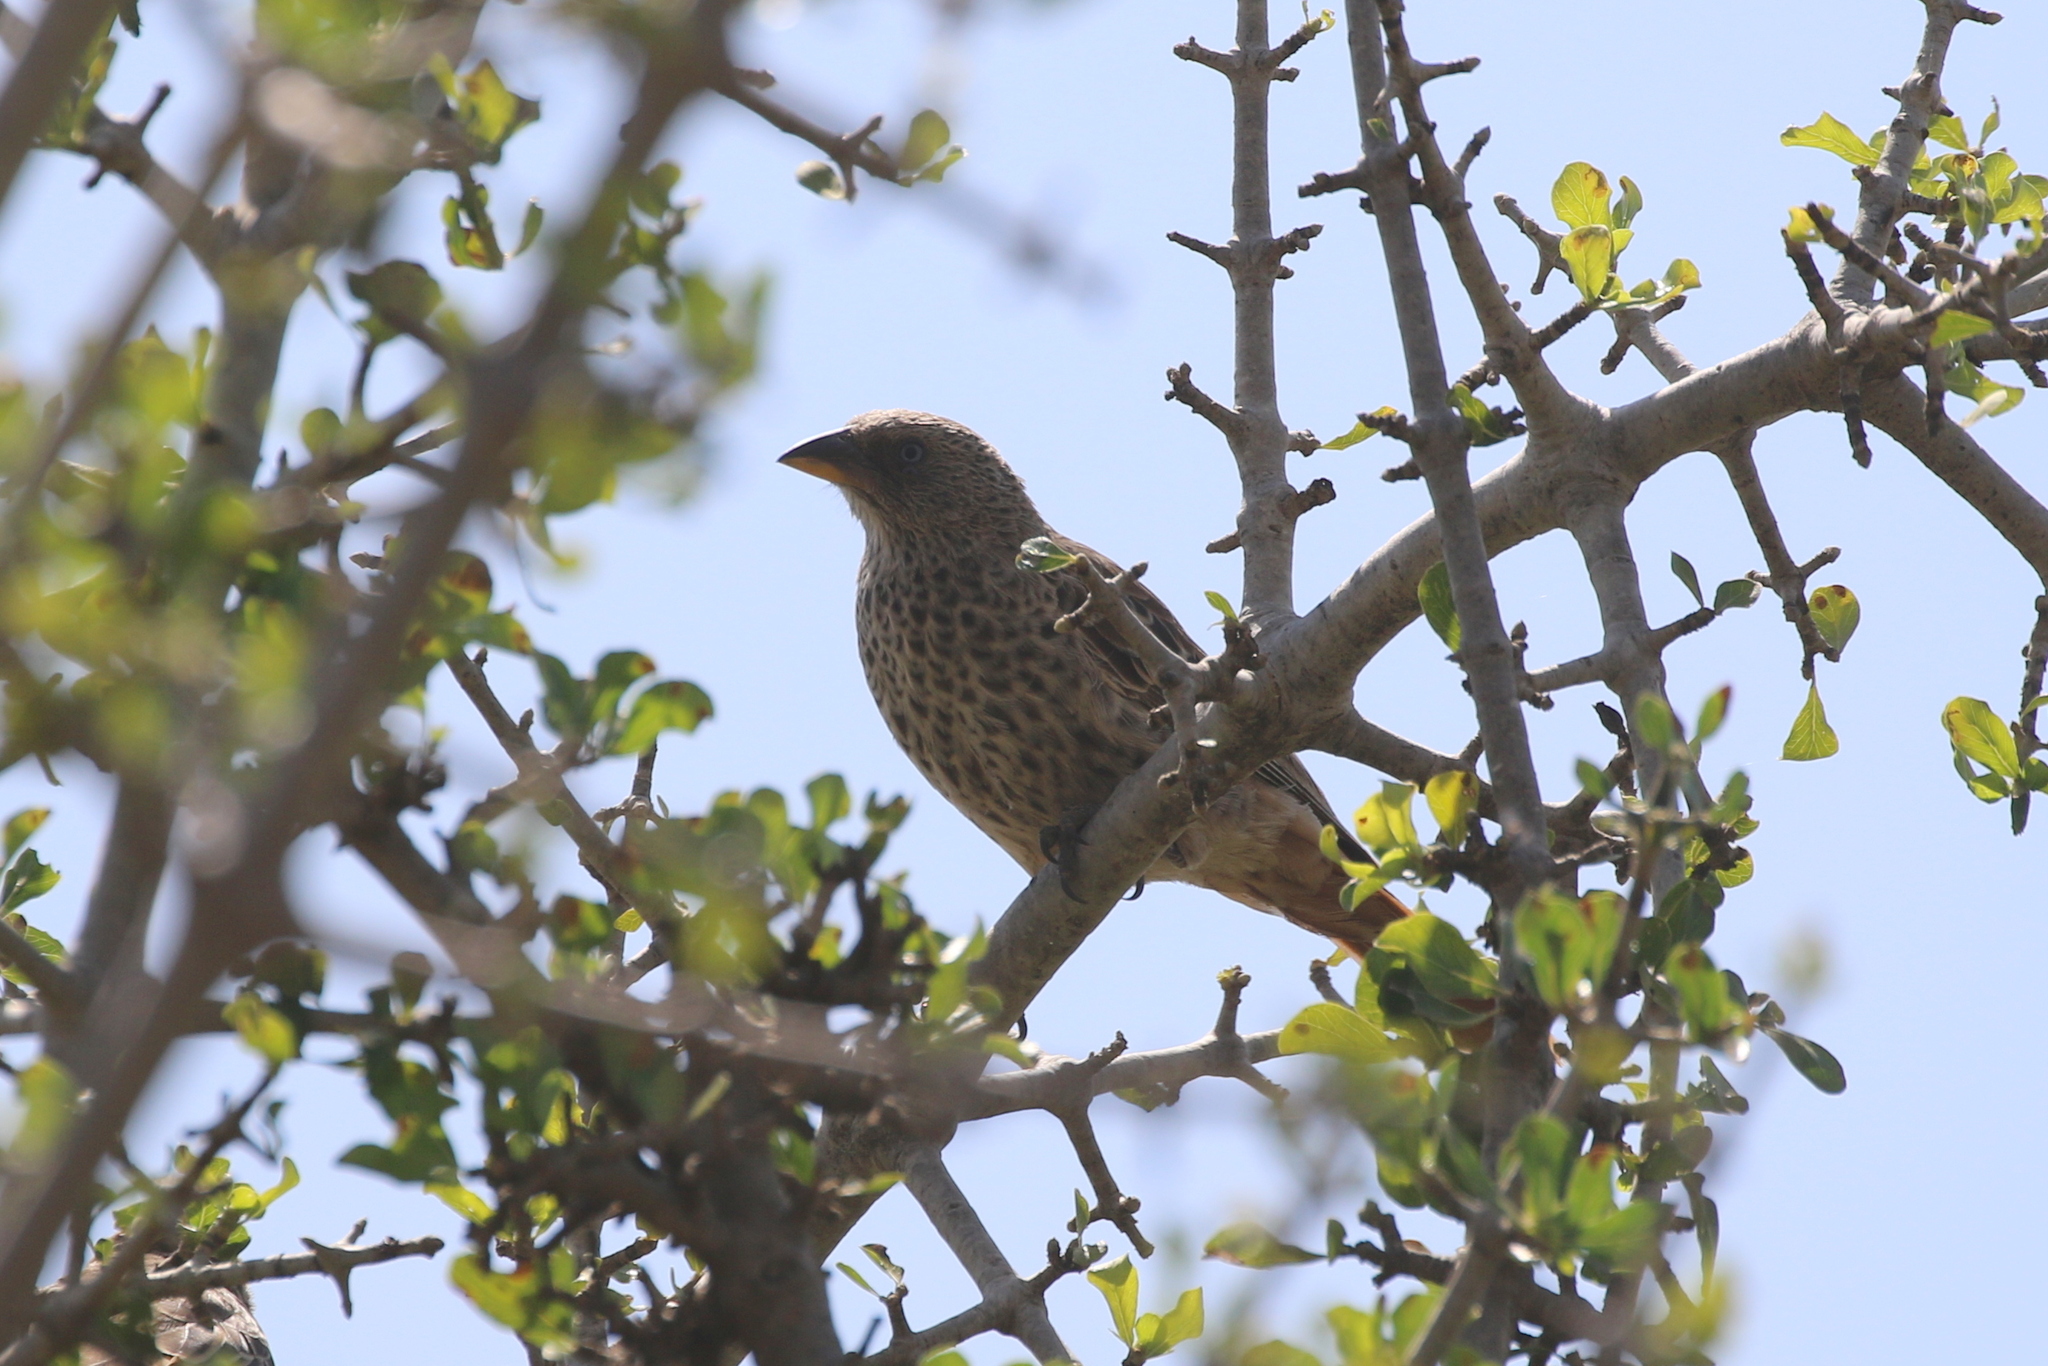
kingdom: Animalia
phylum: Chordata
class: Aves
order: Passeriformes
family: Passeridae
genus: Histurgops
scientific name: Histurgops ruficauda
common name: Rufous-tailed weaver
